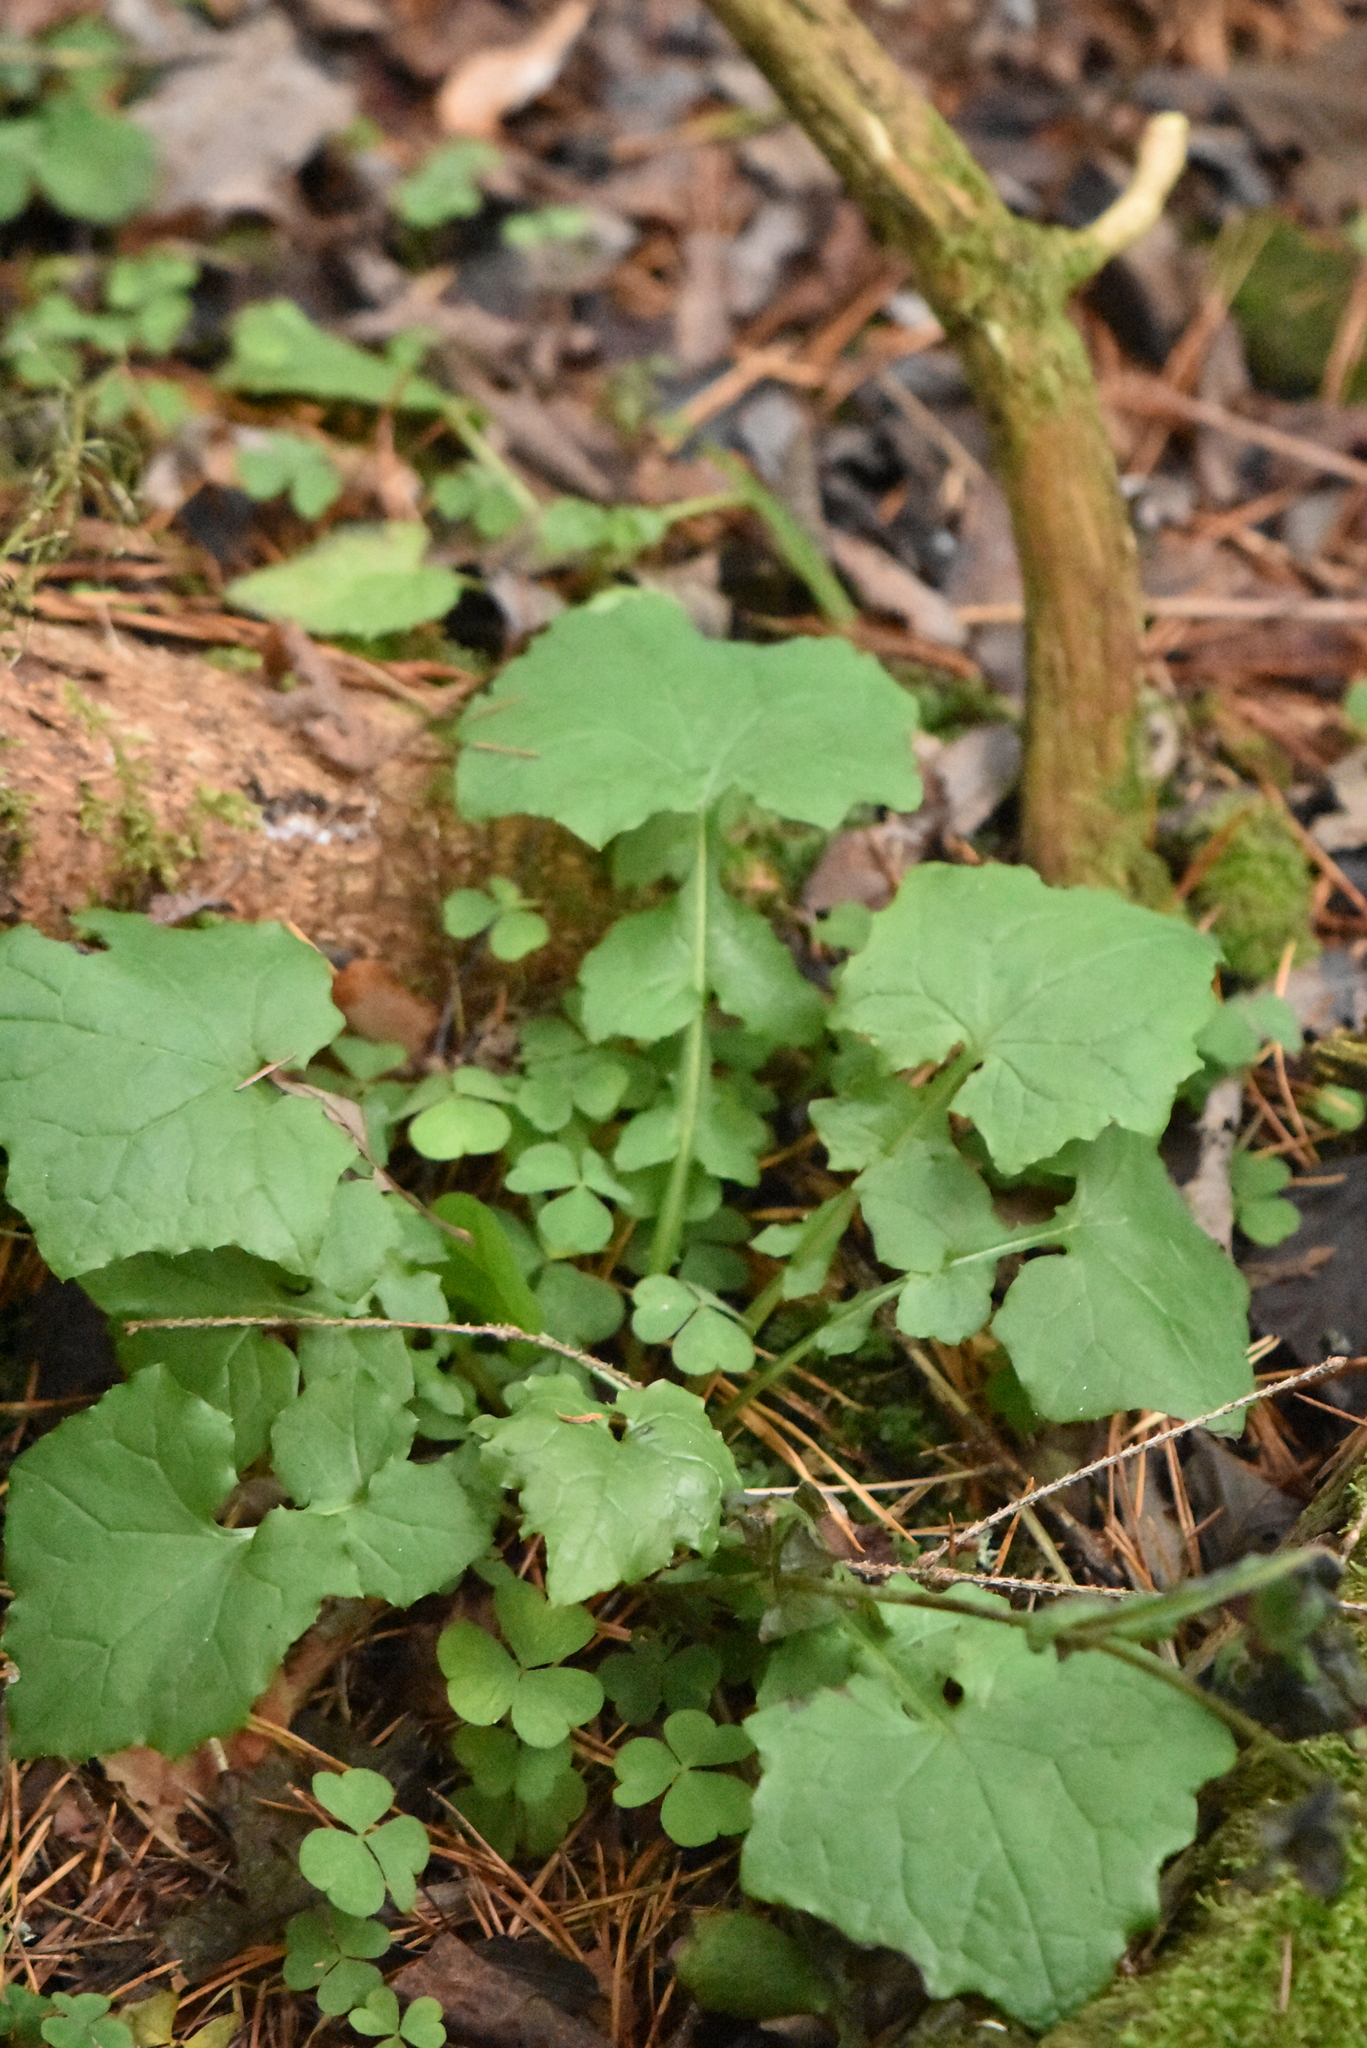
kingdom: Plantae
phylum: Tracheophyta
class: Magnoliopsida
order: Asterales
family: Asteraceae
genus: Mycelis
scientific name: Mycelis muralis
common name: Wall lettuce
